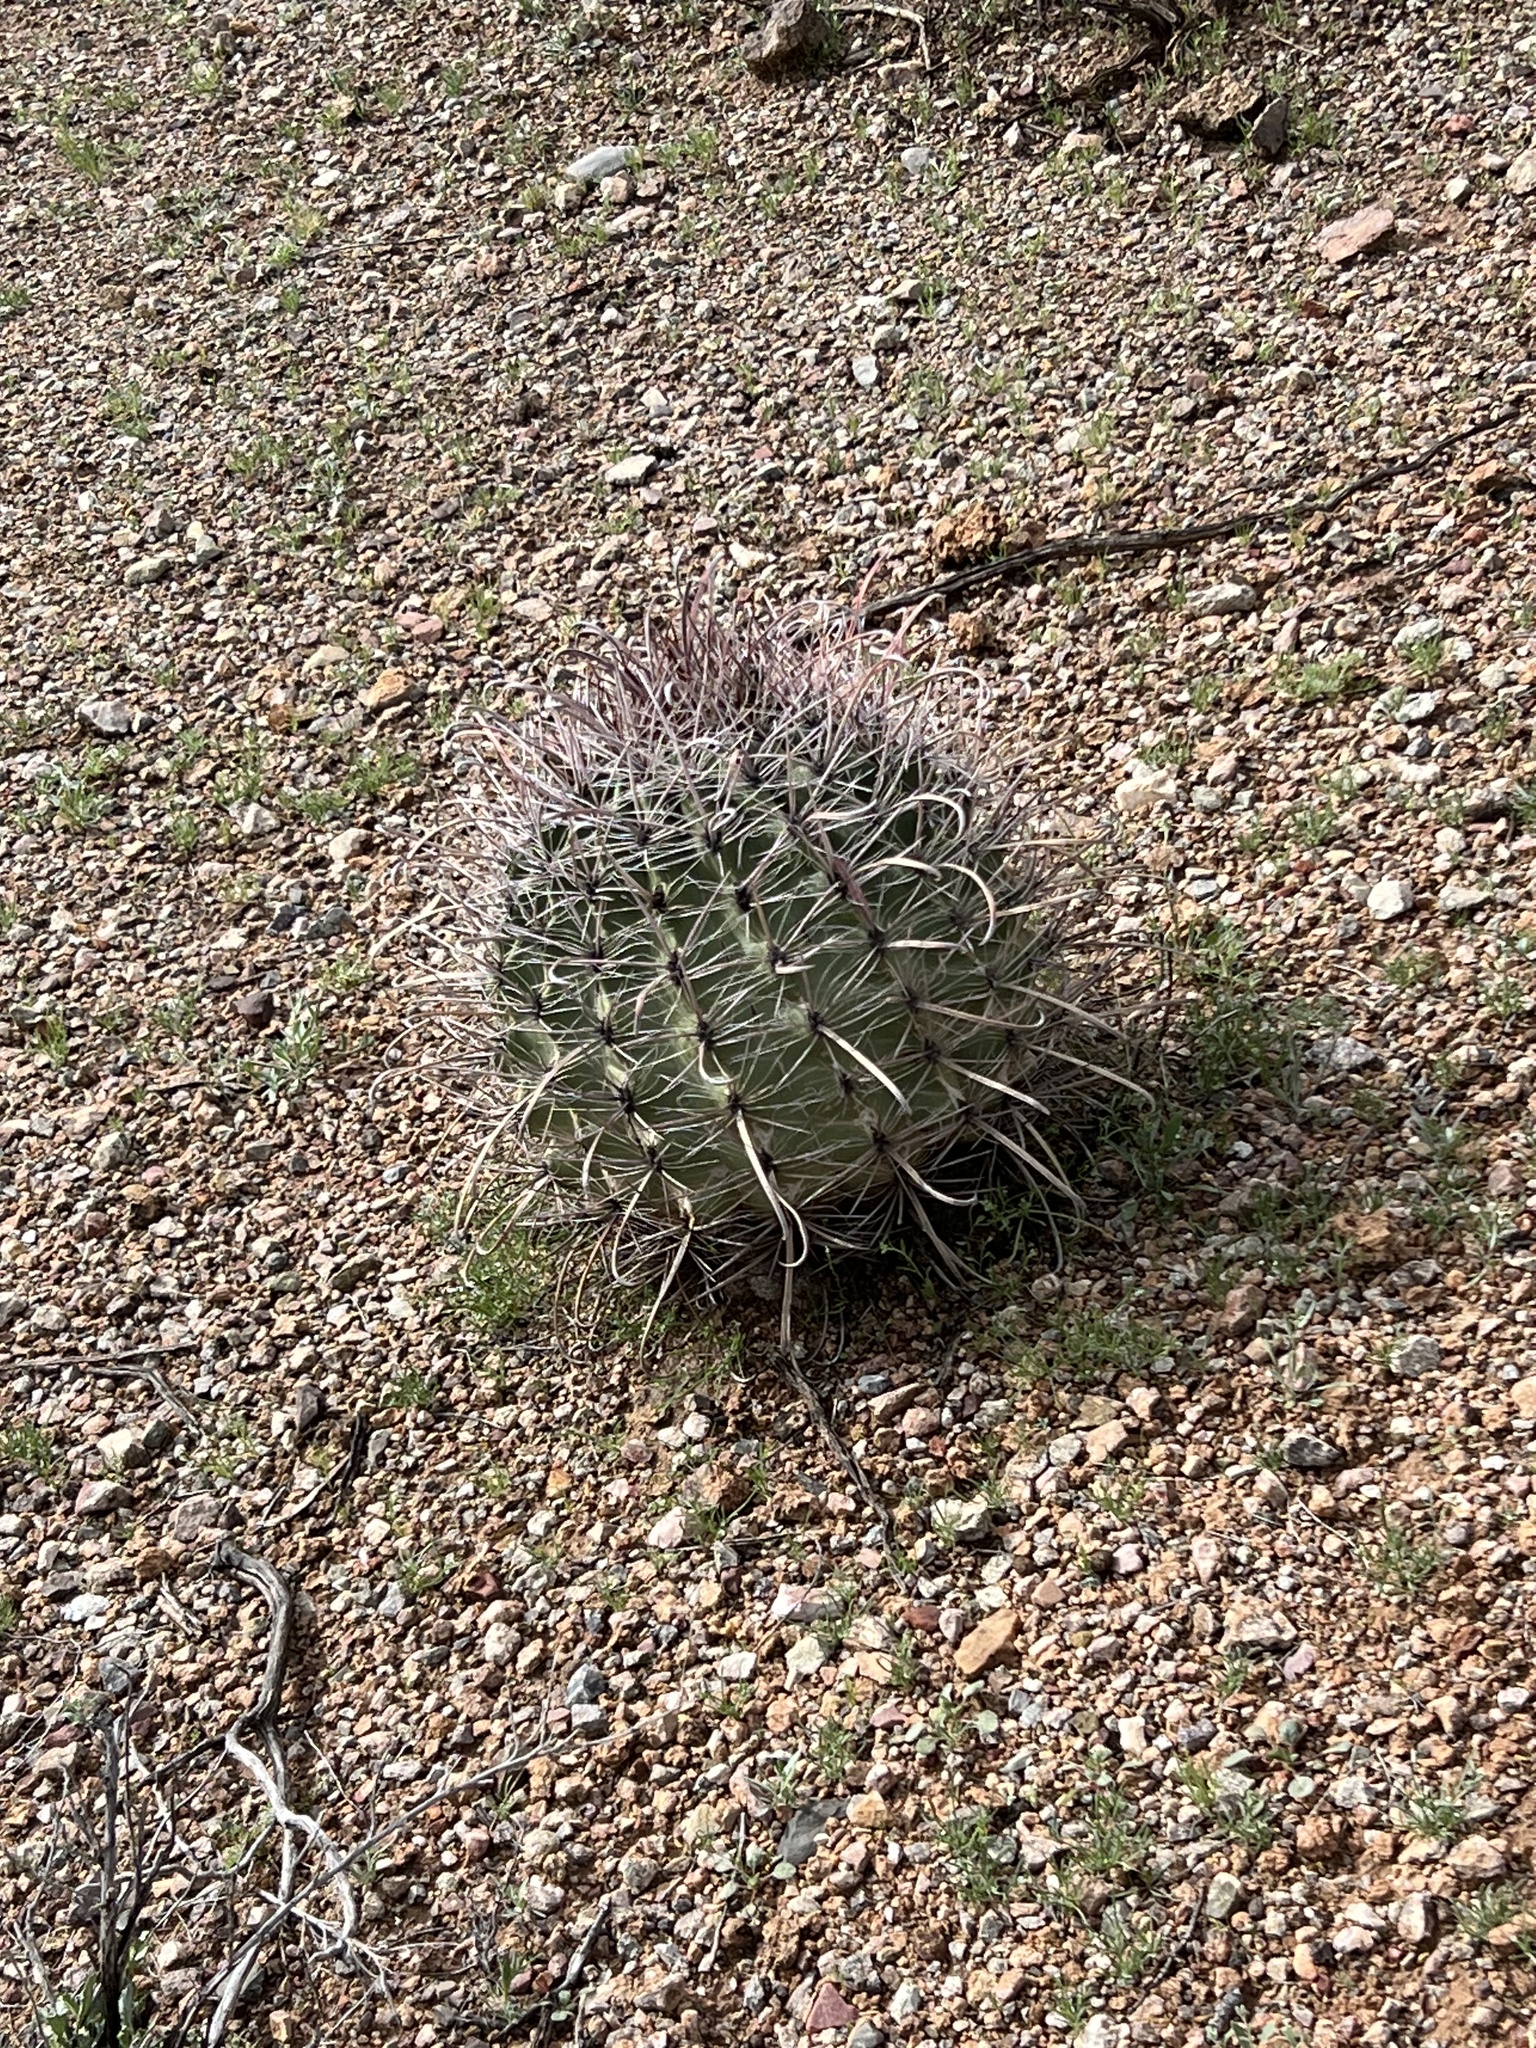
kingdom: Plantae
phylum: Tracheophyta
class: Magnoliopsida
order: Caryophyllales
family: Cactaceae
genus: Ferocactus
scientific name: Ferocactus wislizeni
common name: Candy barrel cactus
